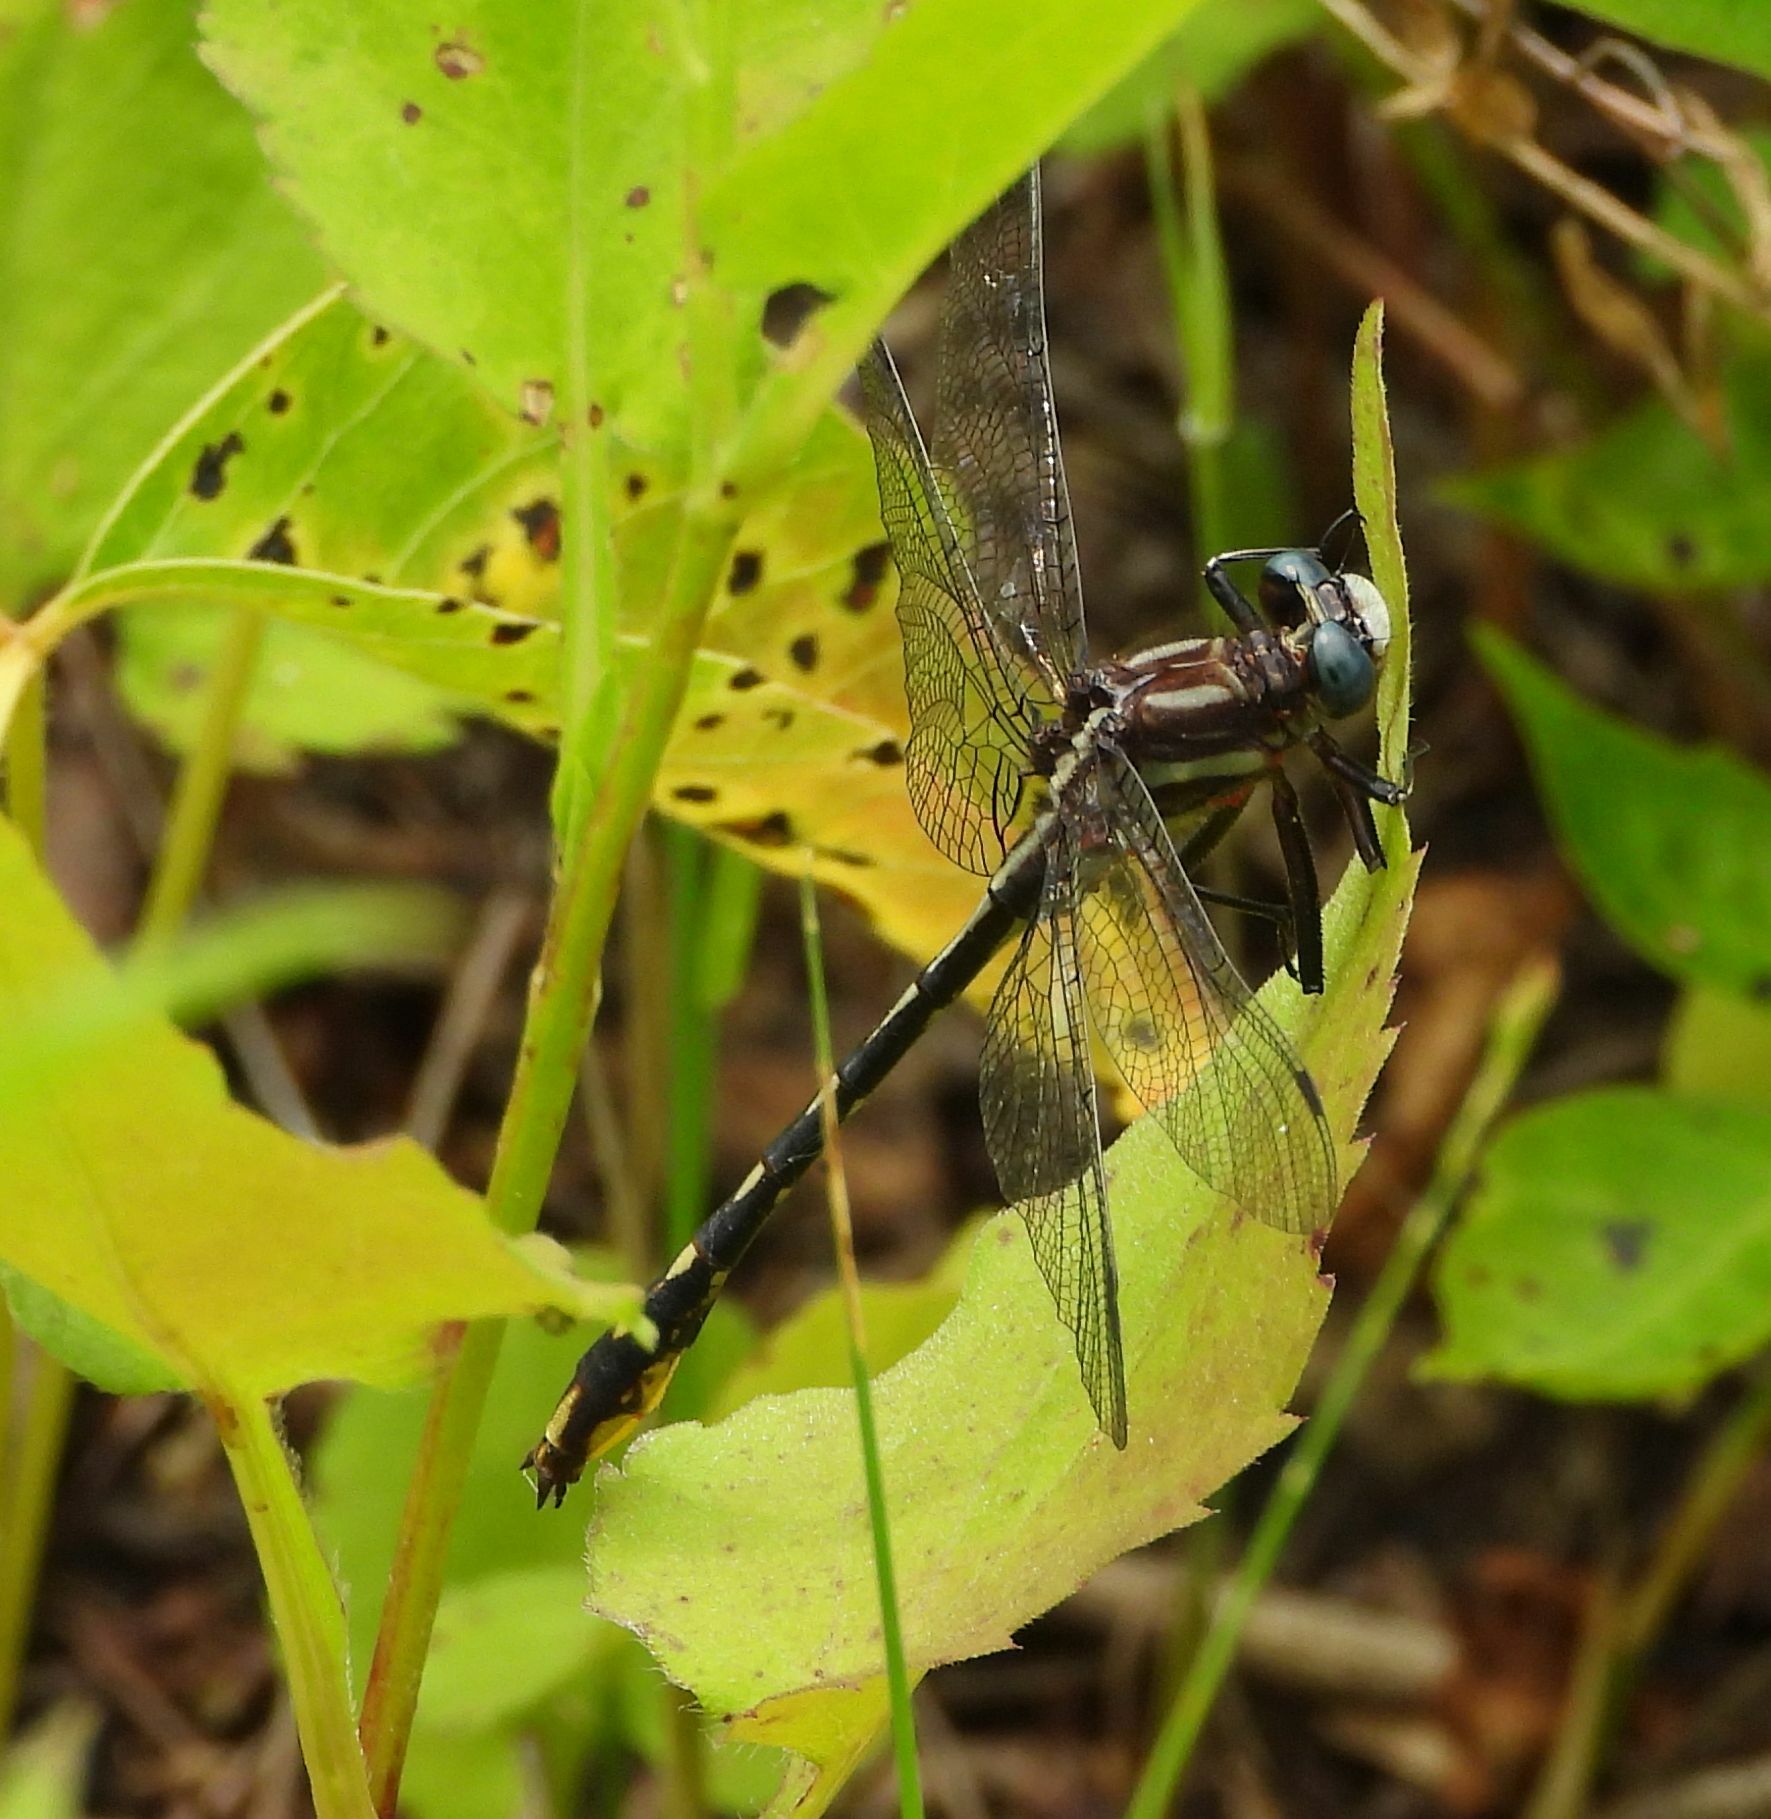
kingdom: Animalia
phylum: Arthropoda
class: Insecta
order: Odonata
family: Gomphidae
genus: Phanogomphus
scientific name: Phanogomphus exilis
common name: Lancet clubtail
